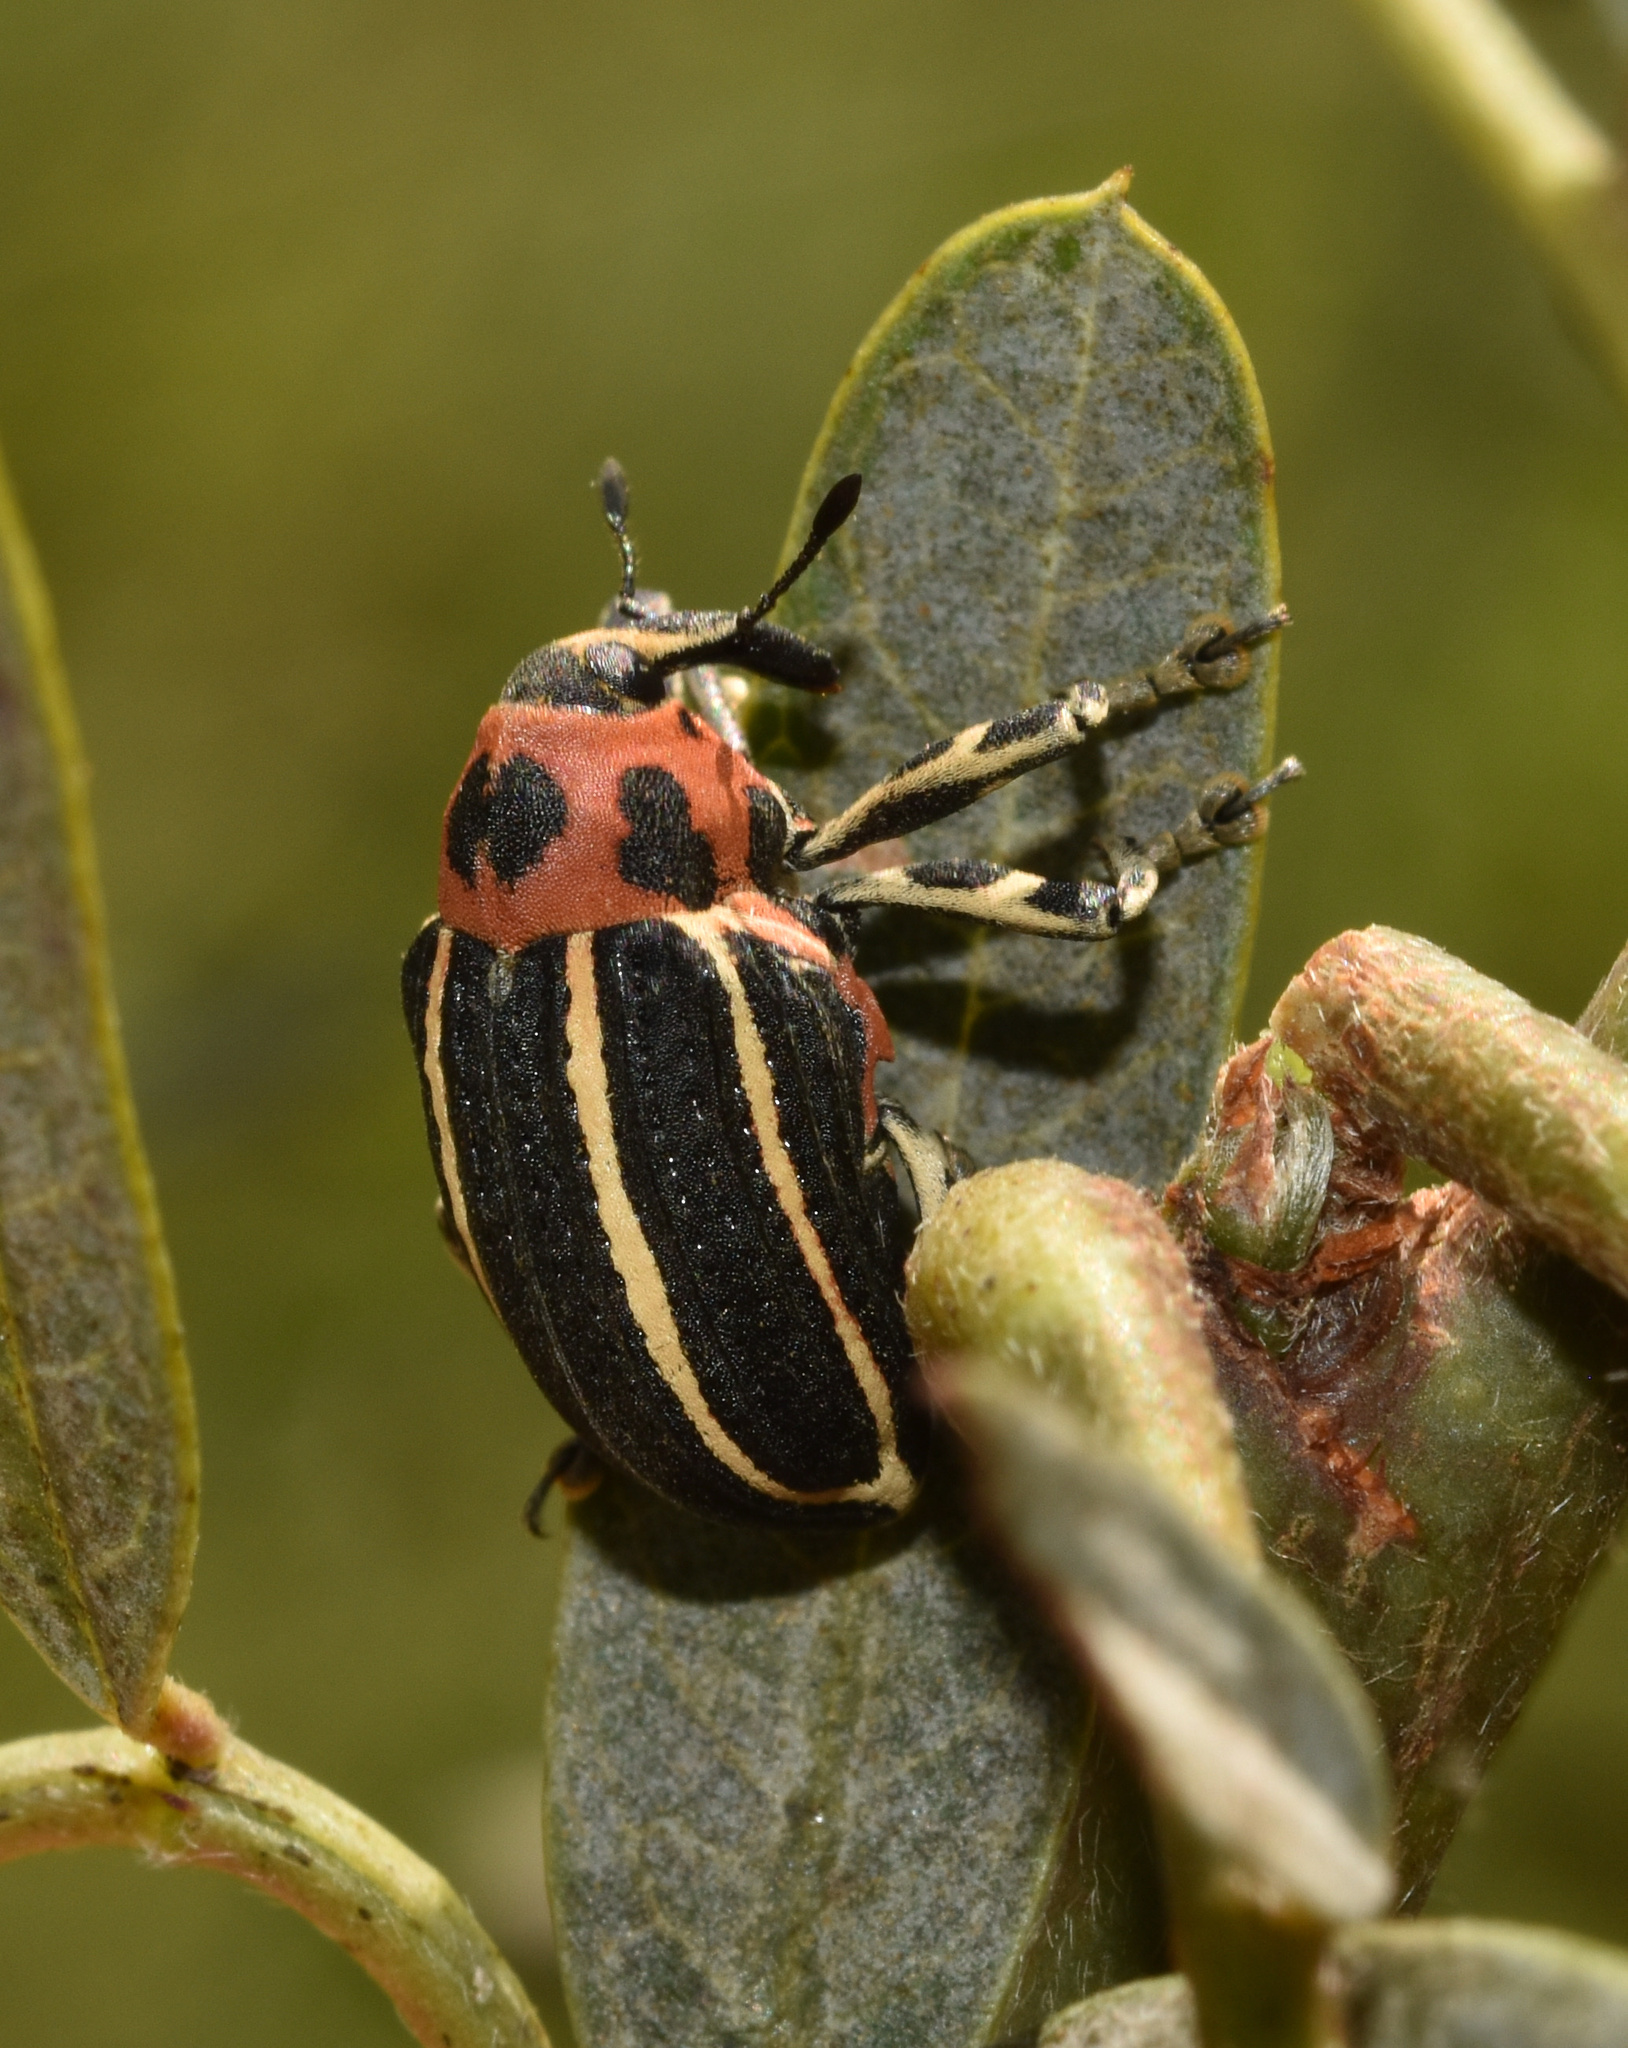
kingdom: Animalia
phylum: Arthropoda
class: Insecta
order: Coleoptera
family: Curculionidae
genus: Neodiplogrammus
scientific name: Neodiplogrammus
